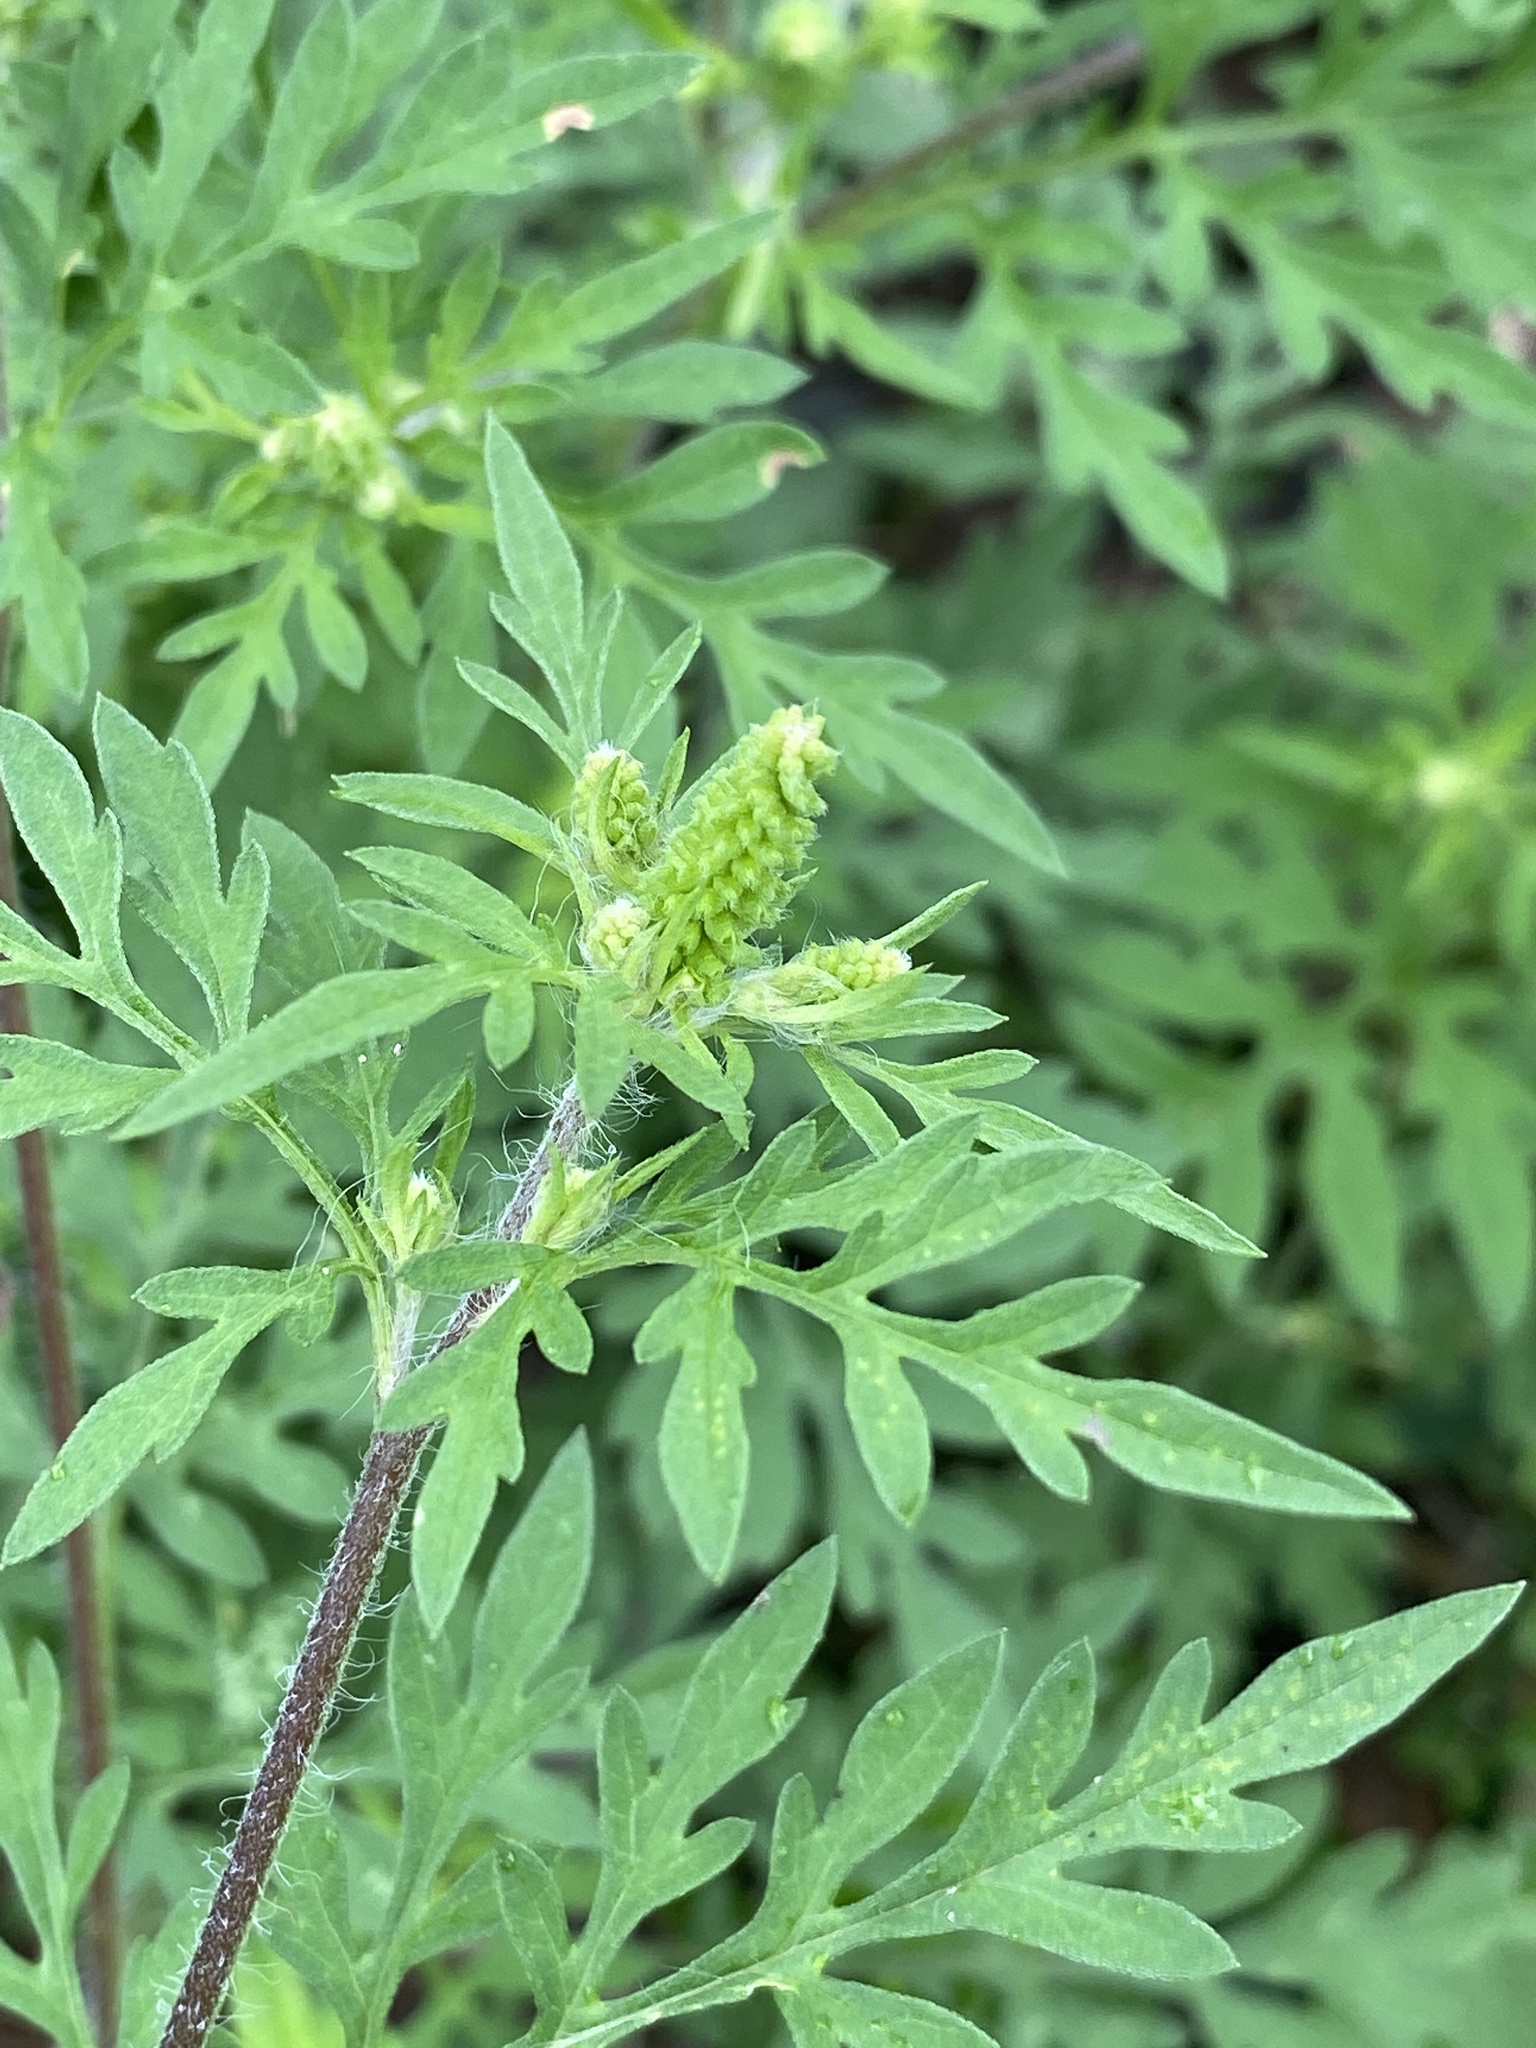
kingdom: Plantae
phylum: Tracheophyta
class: Magnoliopsida
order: Asterales
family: Asteraceae
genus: Ambrosia
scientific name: Ambrosia artemisiifolia
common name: Annual ragweed
